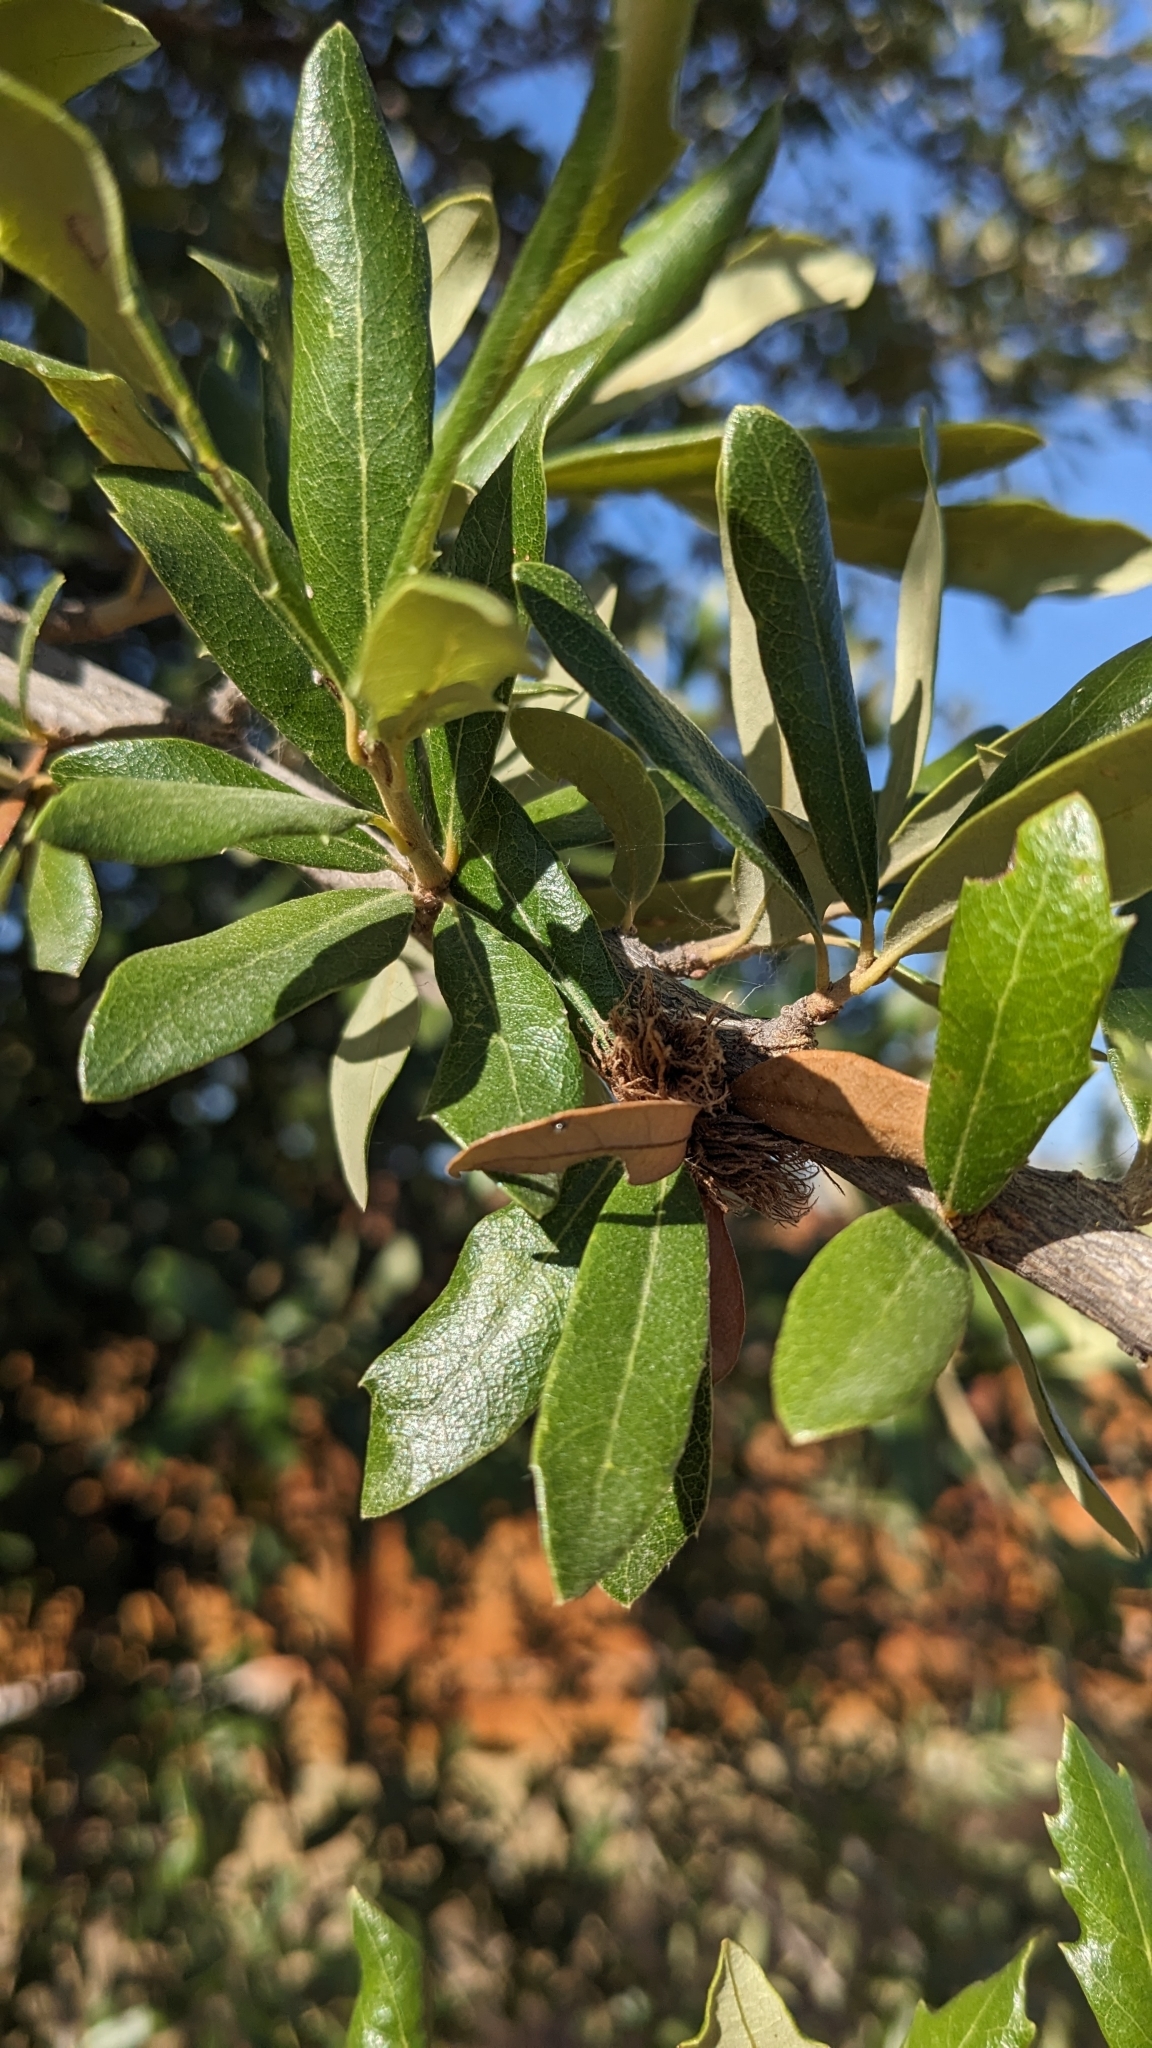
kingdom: Animalia
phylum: Arthropoda
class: Insecta
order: Hymenoptera
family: Cynipidae
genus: Andricus
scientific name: Andricus quercusfoliatus
